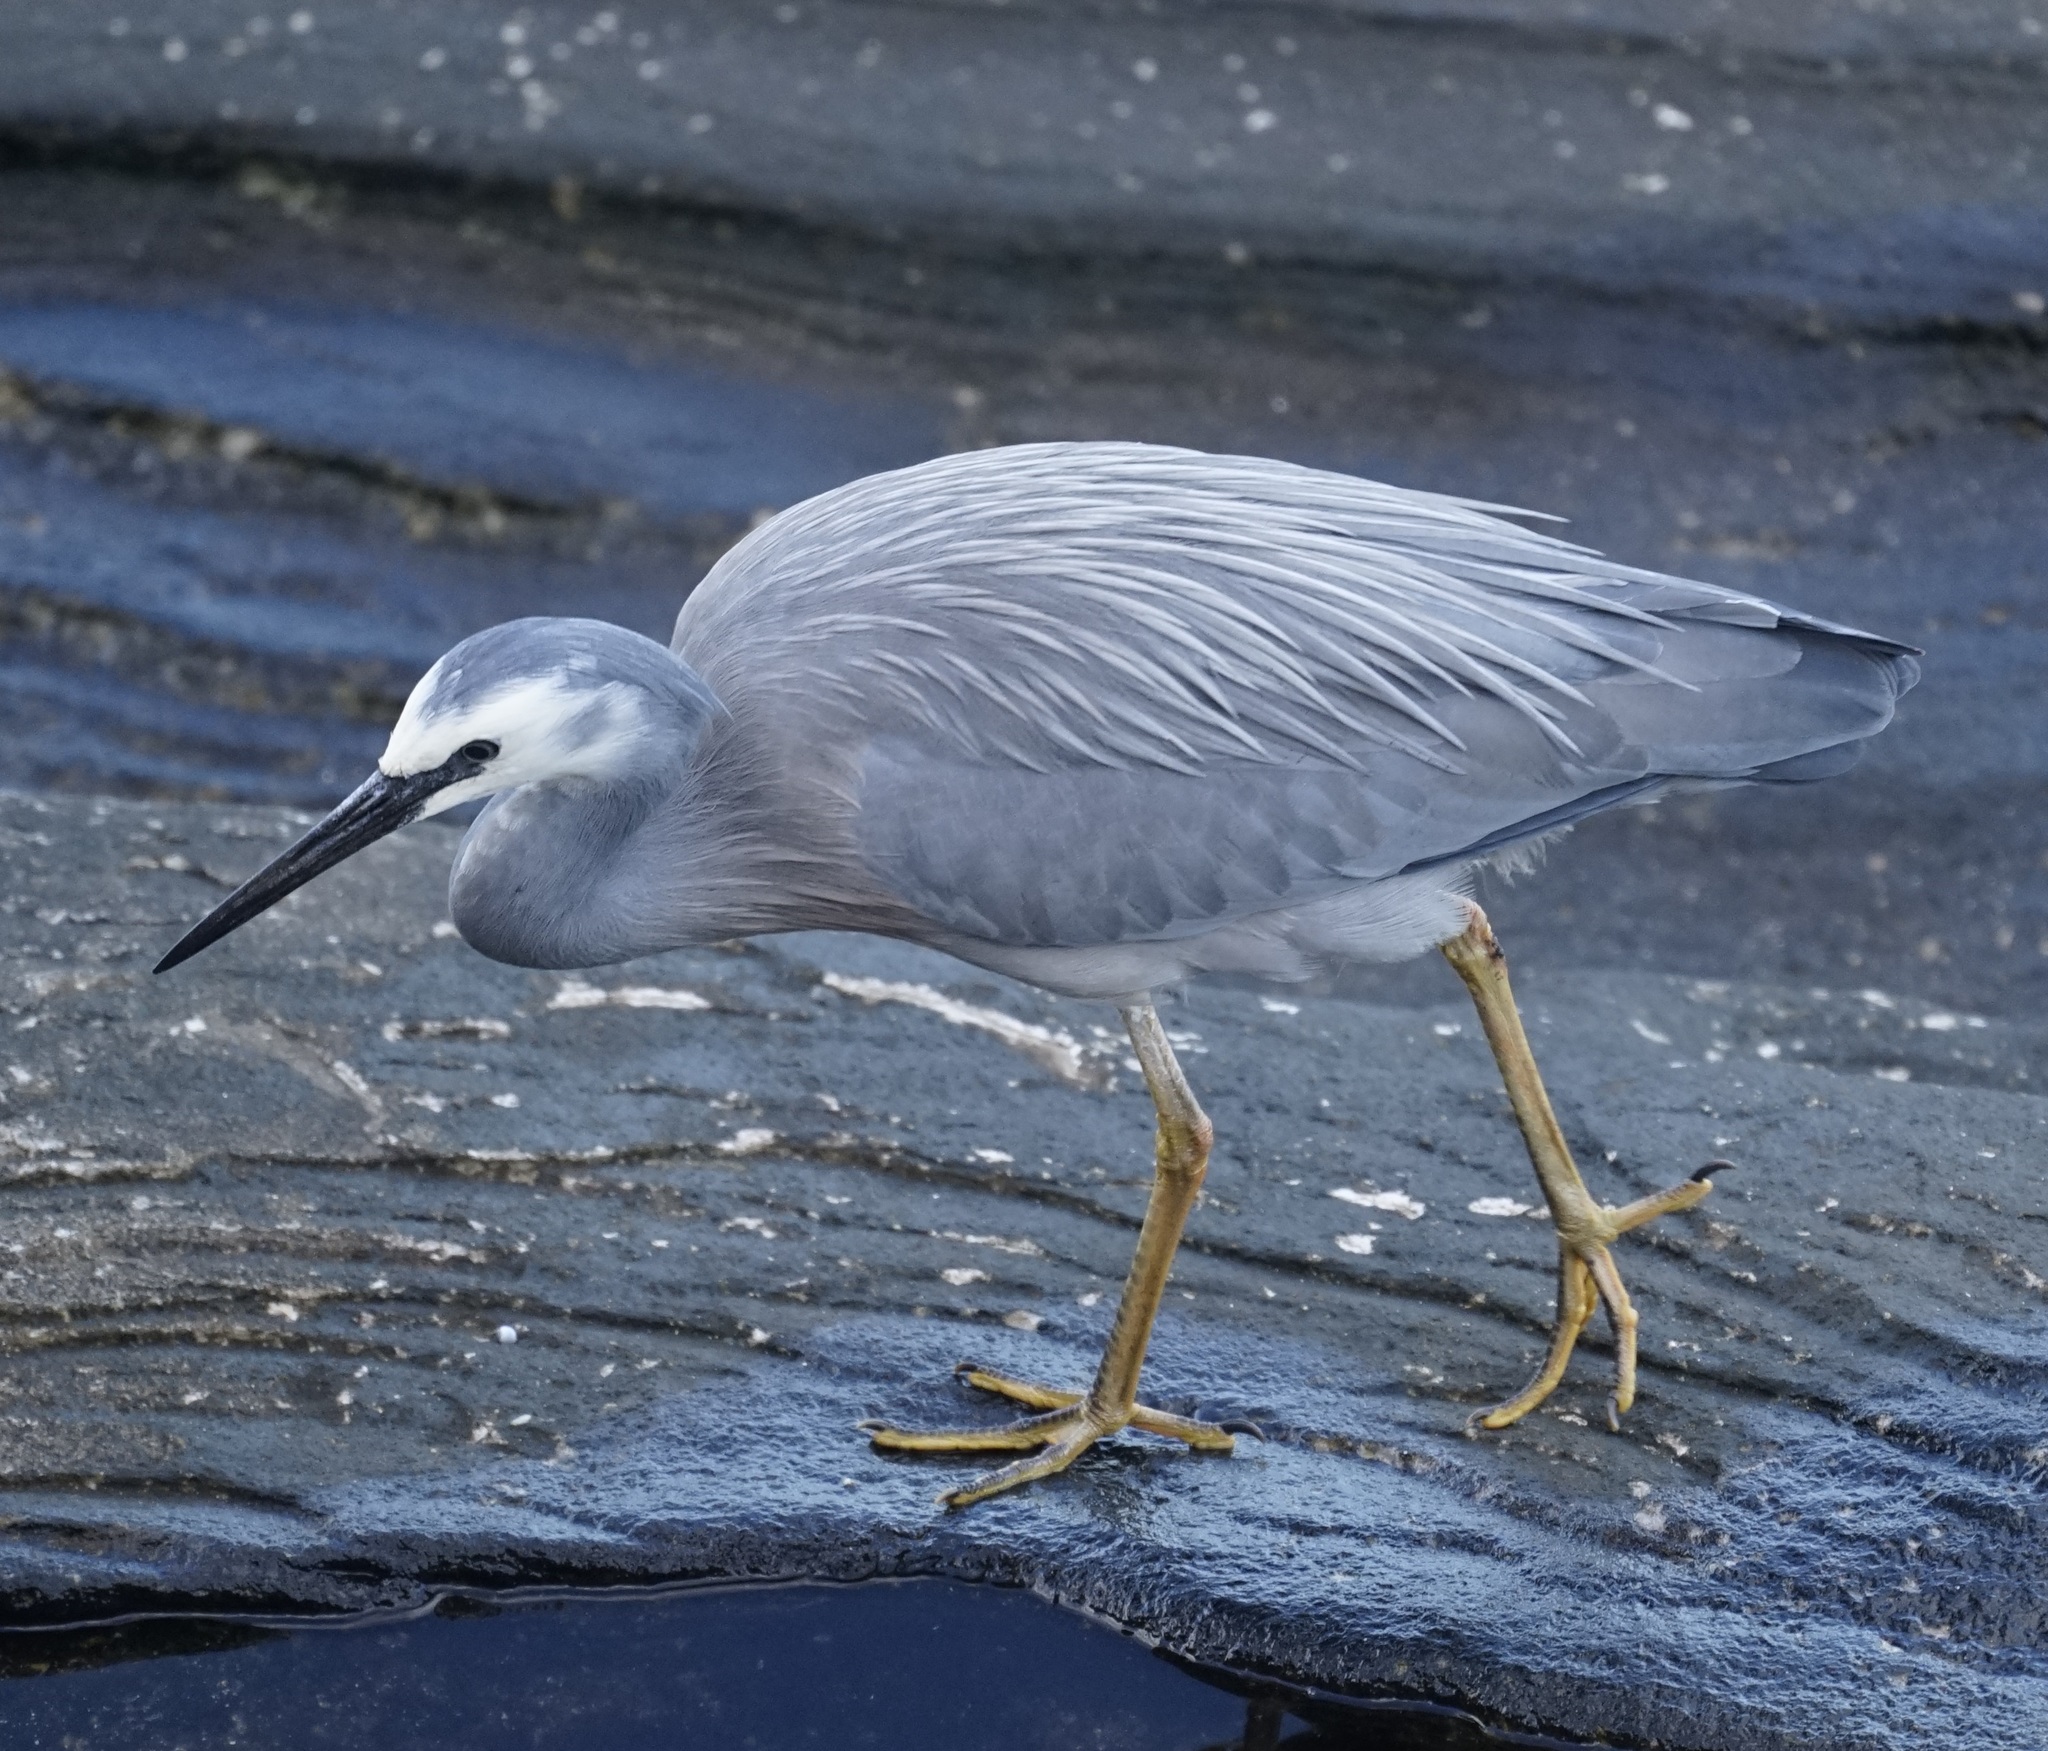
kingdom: Animalia
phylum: Chordata
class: Aves
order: Pelecaniformes
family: Ardeidae
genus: Egretta
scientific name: Egretta novaehollandiae
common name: White-faced heron
